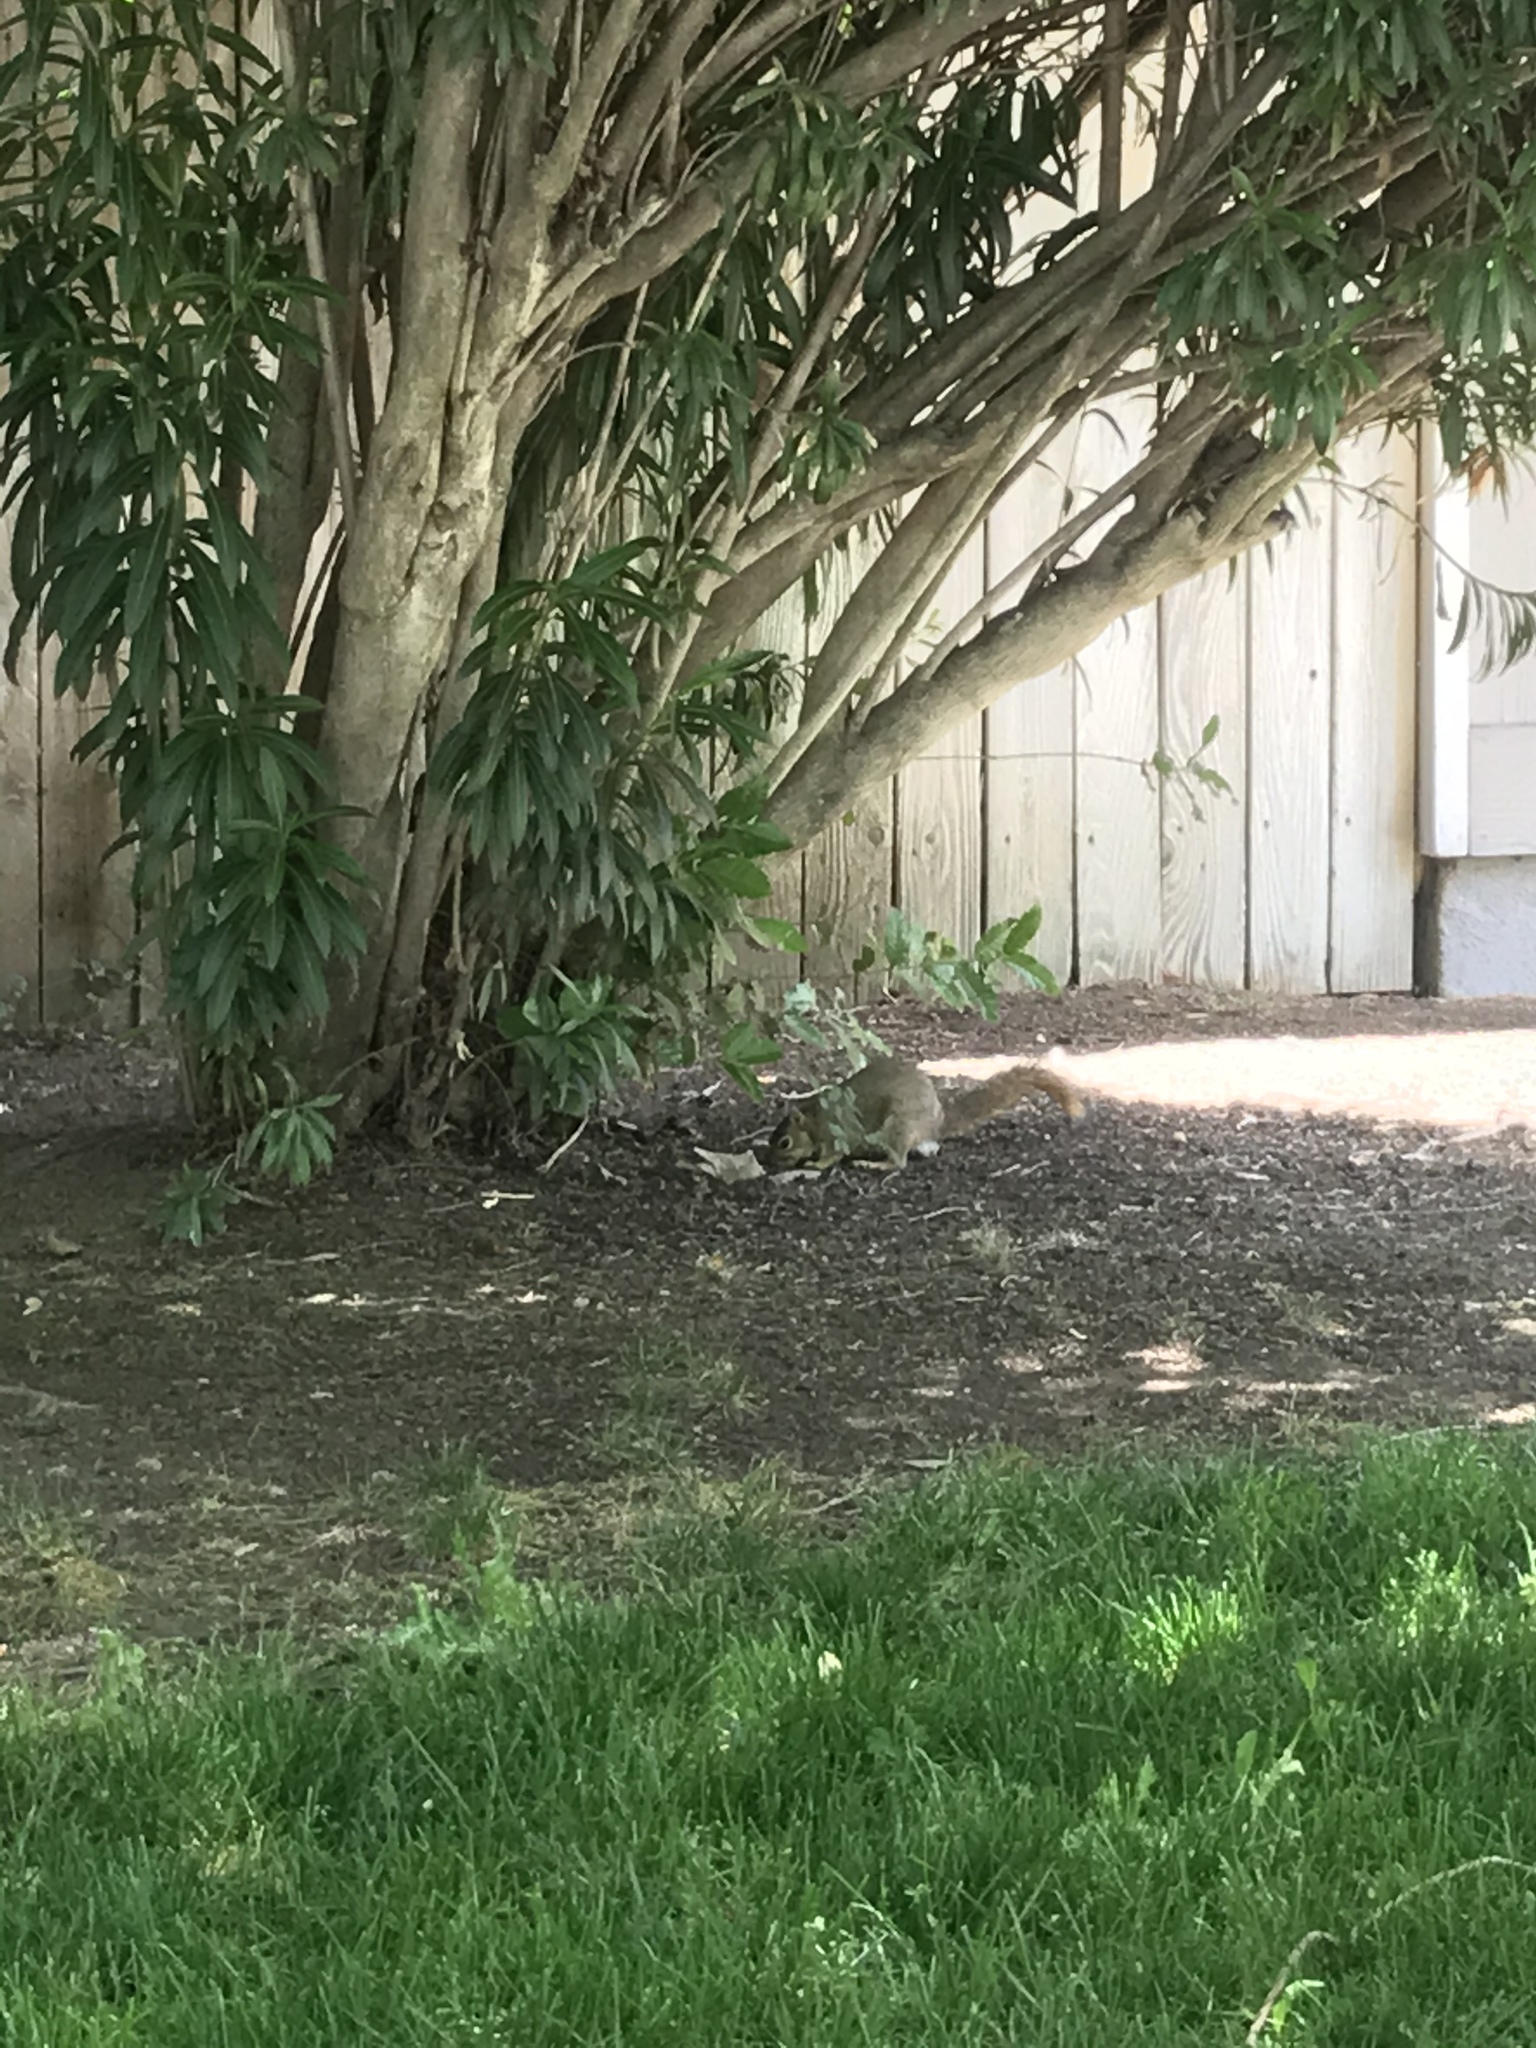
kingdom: Animalia
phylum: Chordata
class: Mammalia
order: Rodentia
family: Sciuridae
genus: Sciurus
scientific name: Sciurus niger
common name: Fox squirrel
